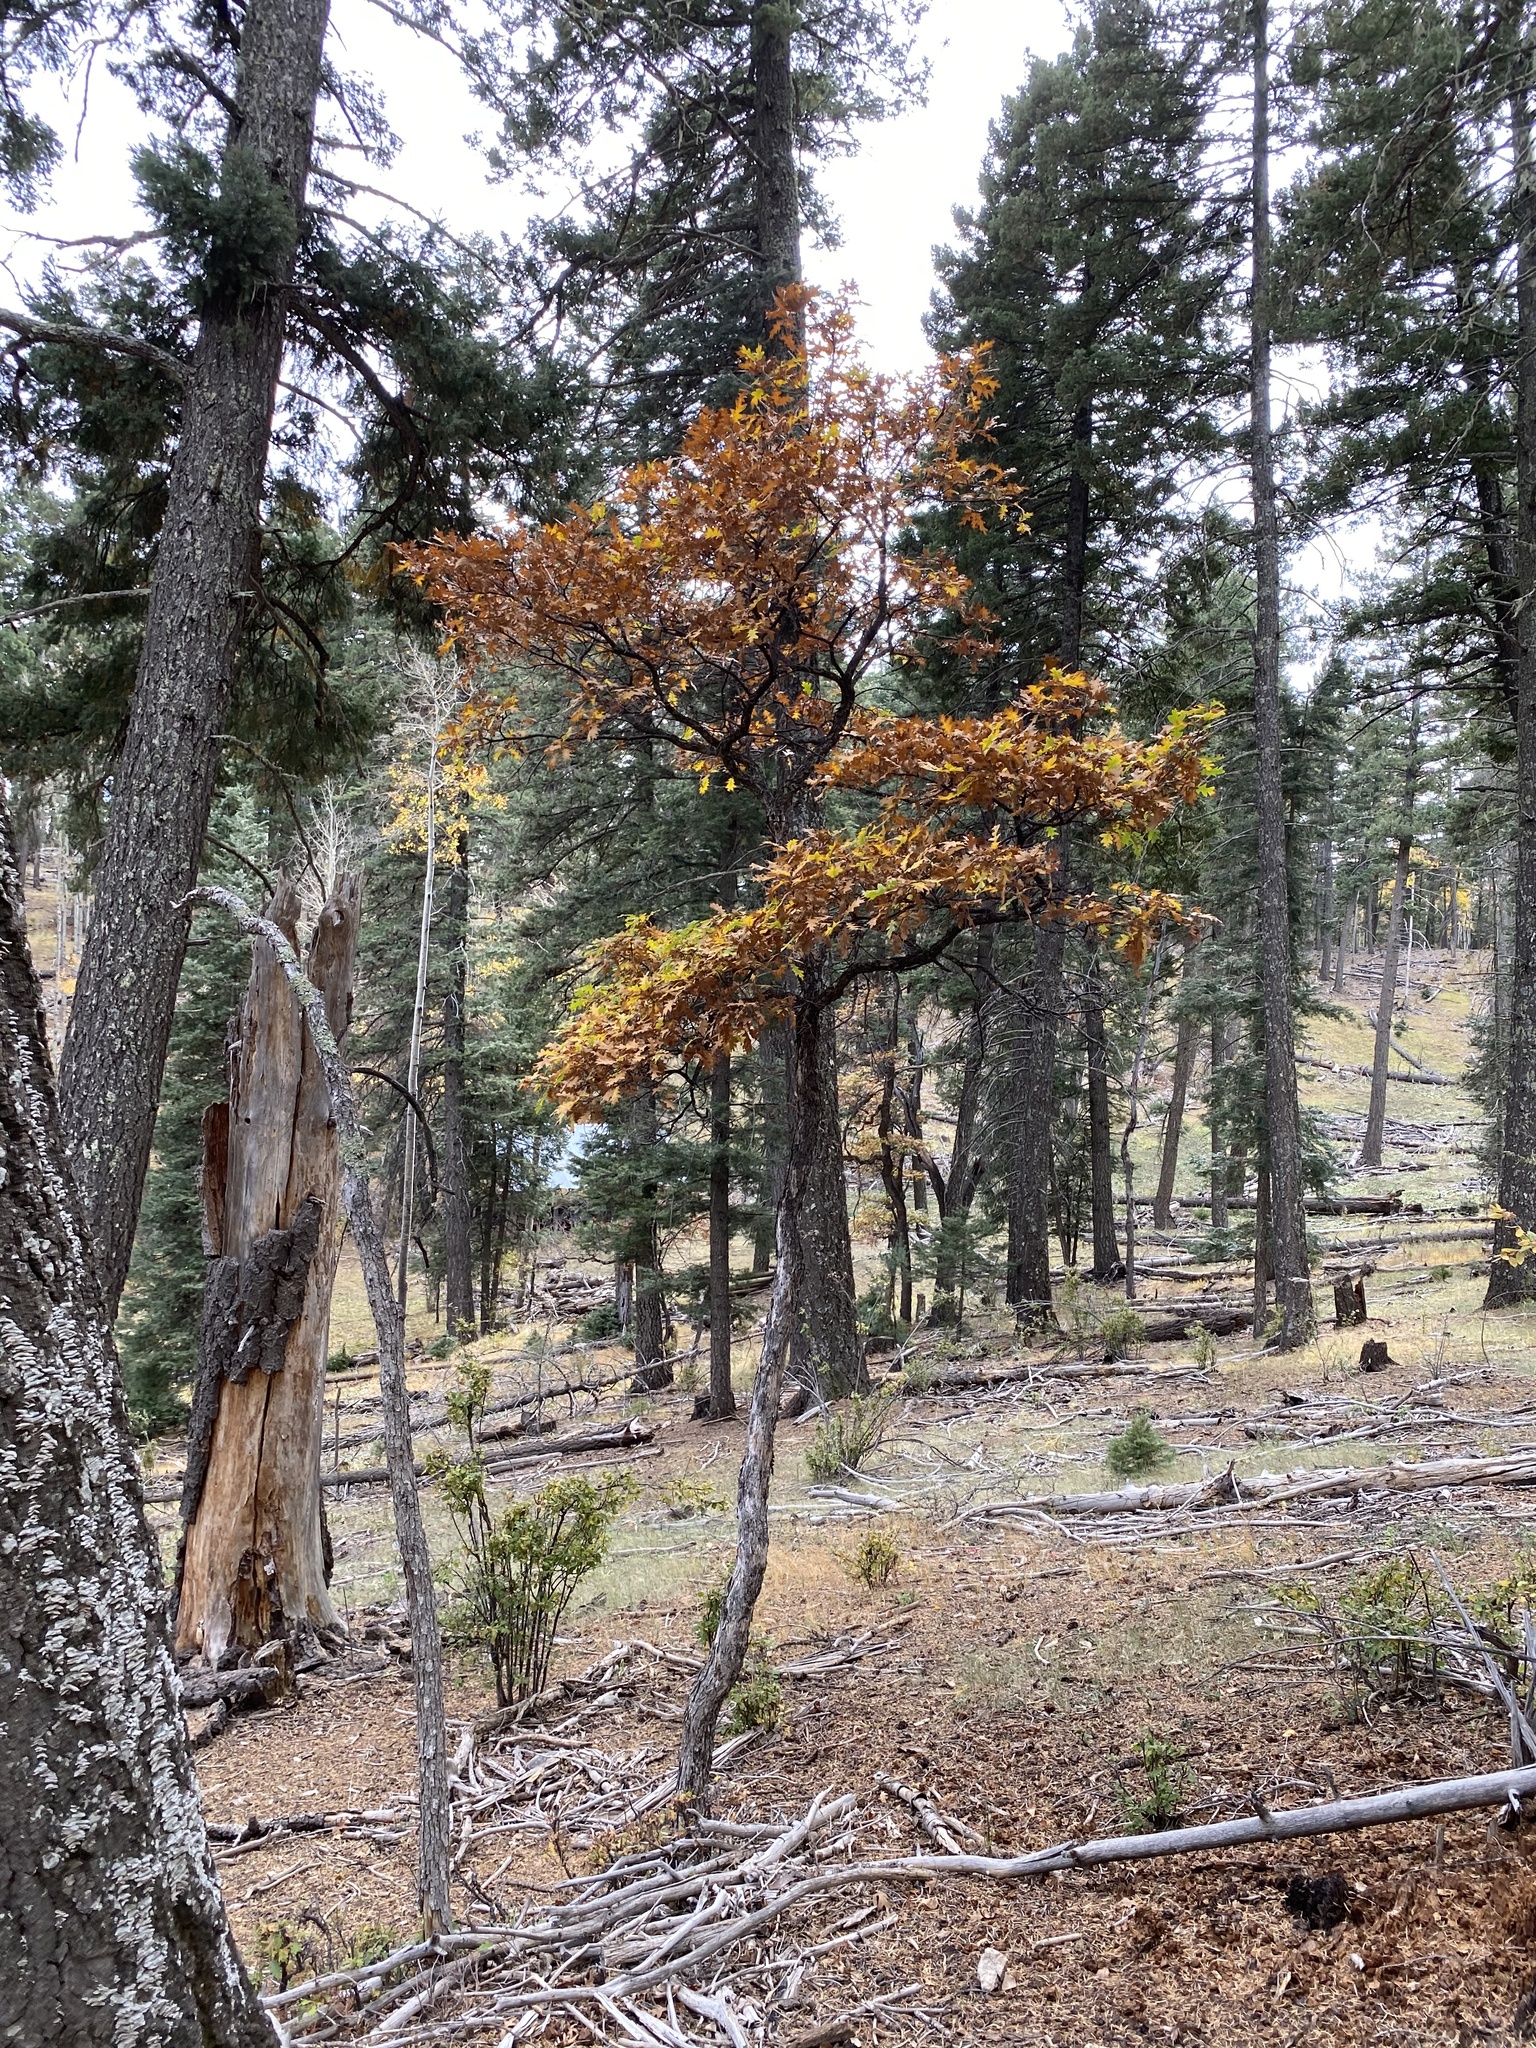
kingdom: Plantae
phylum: Tracheophyta
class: Magnoliopsida
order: Fagales
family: Fagaceae
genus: Quercus
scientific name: Quercus gambelii
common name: Gambel oak
